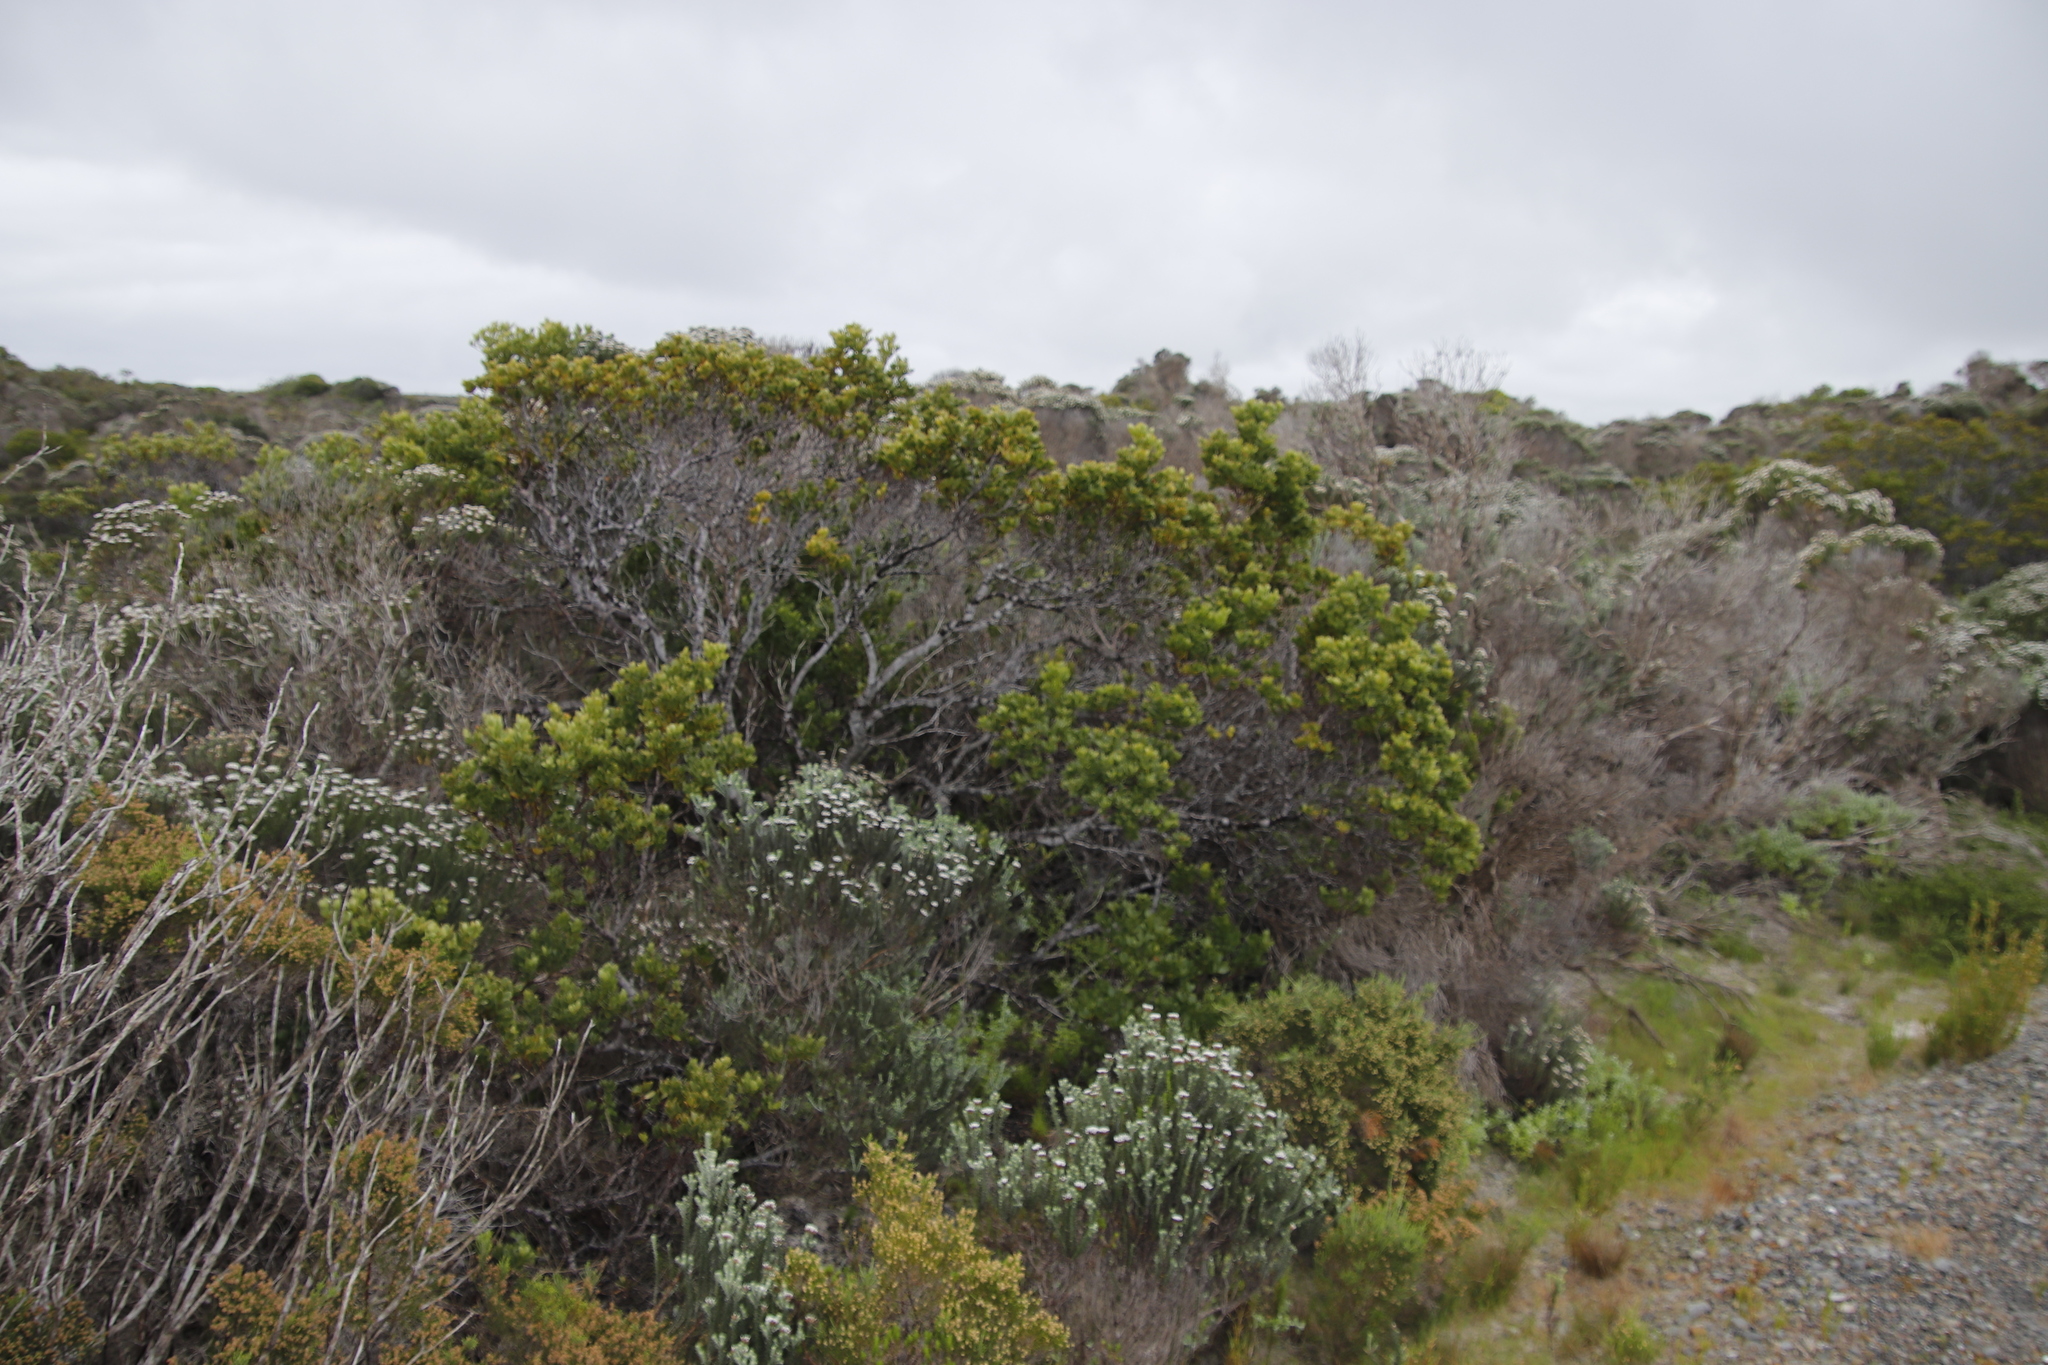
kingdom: Plantae
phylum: Tracheophyta
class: Magnoliopsida
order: Santalales
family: Santalaceae
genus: Osyris
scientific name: Osyris compressa
